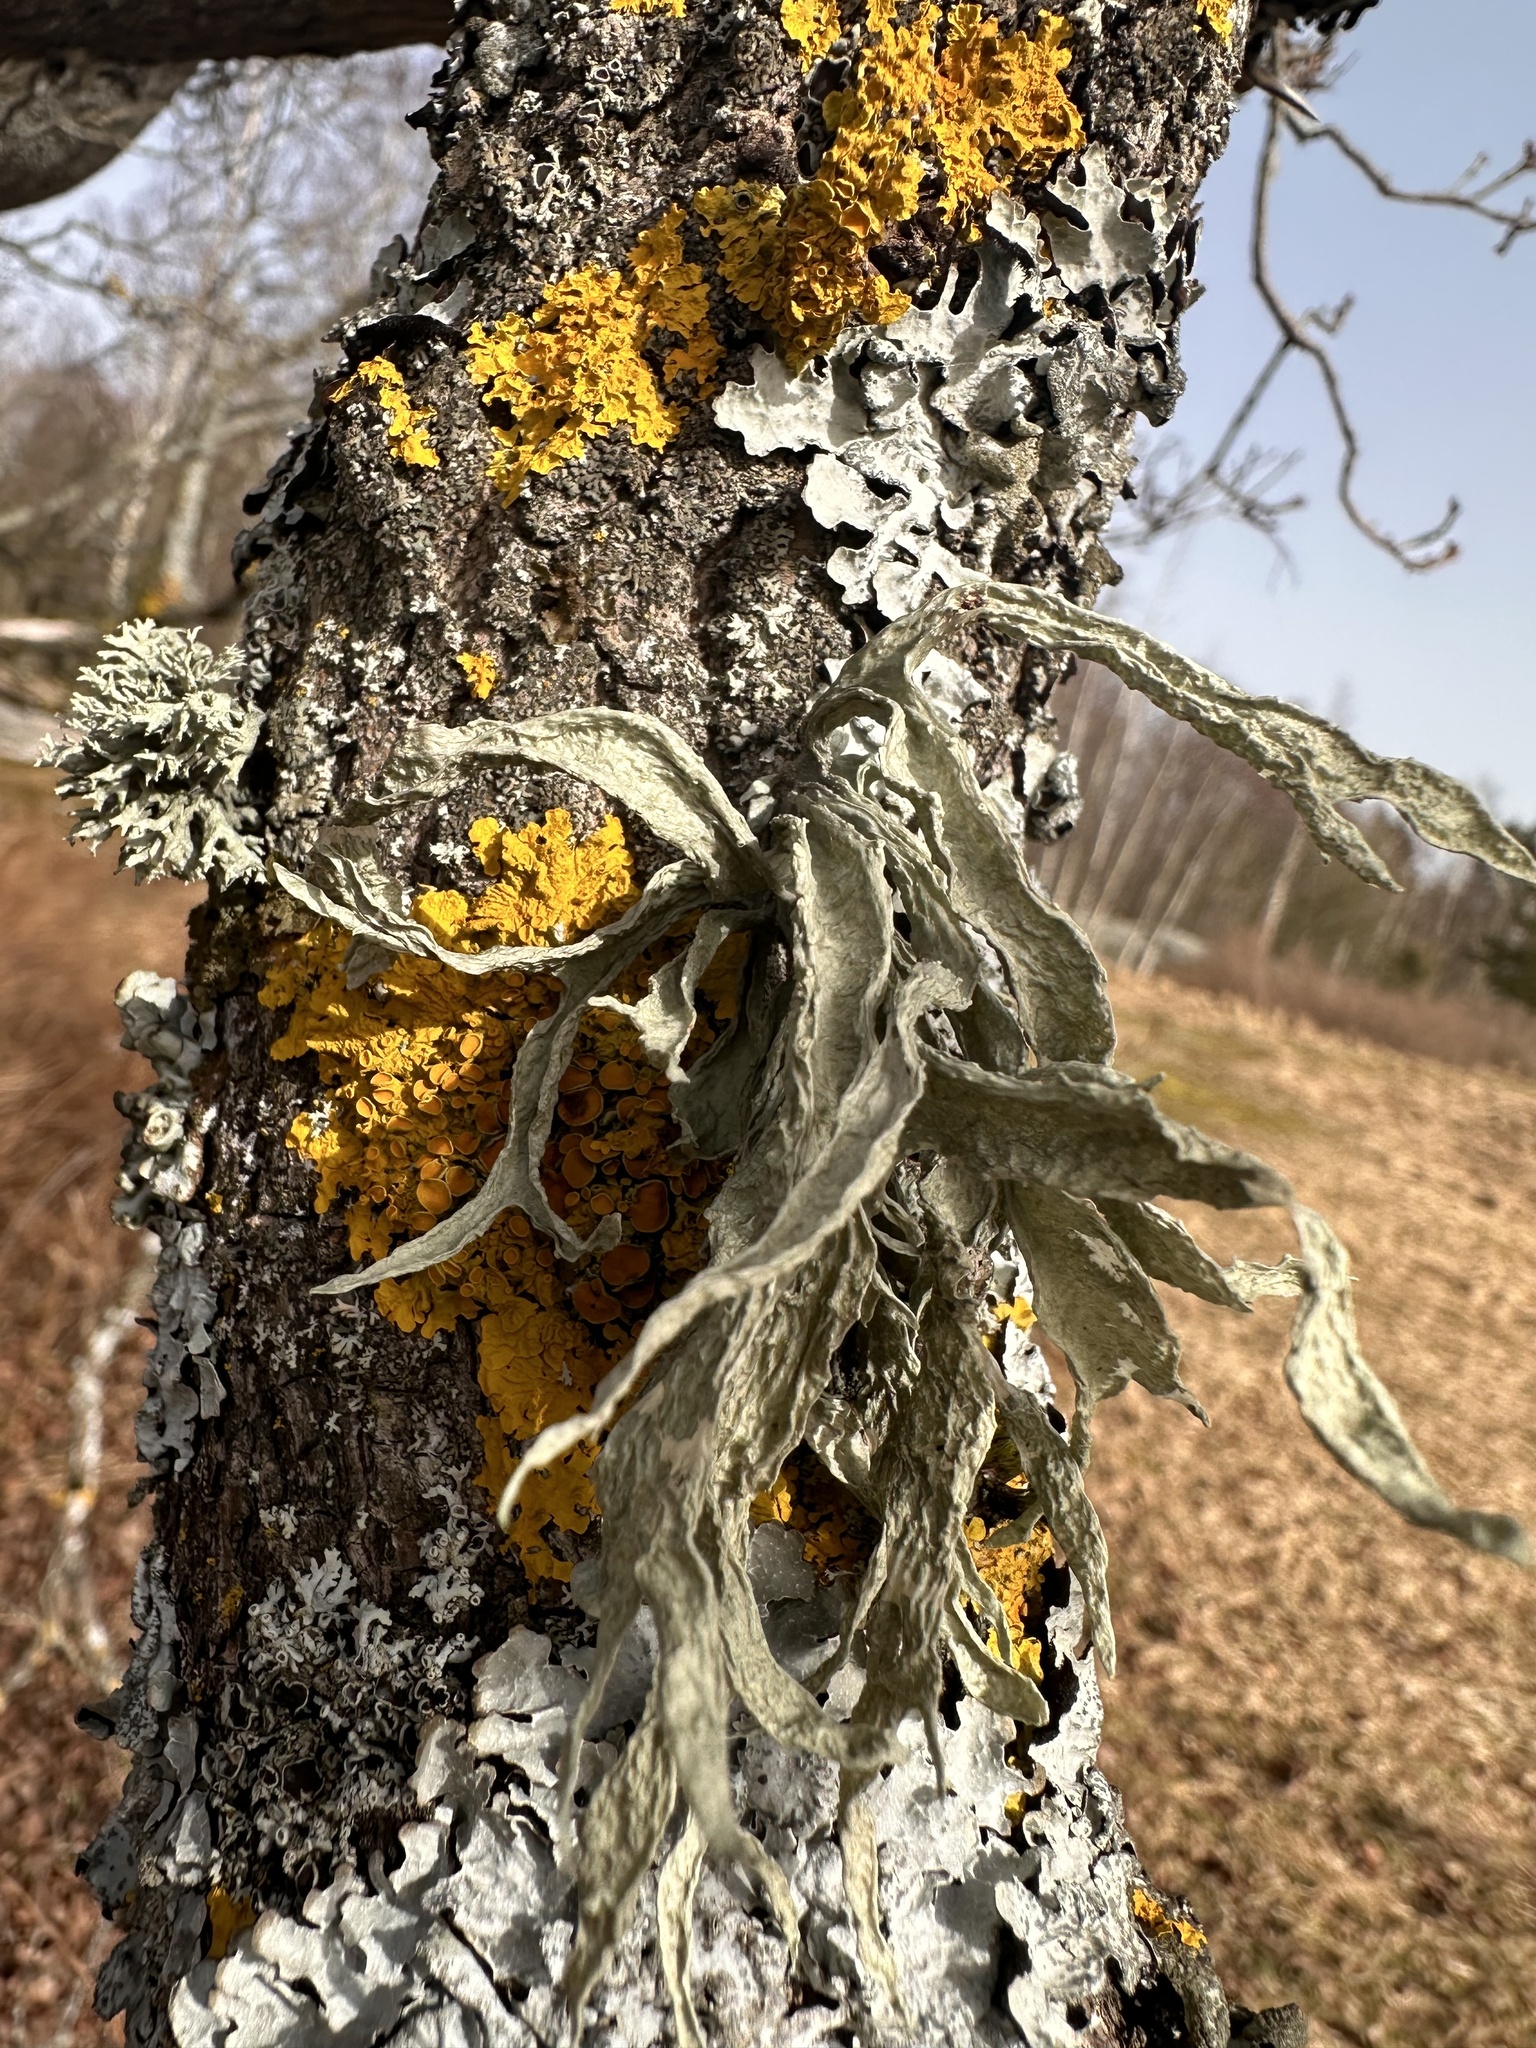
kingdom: Fungi
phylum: Ascomycota
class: Lecanoromycetes
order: Lecanorales
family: Ramalinaceae
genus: Ramalina
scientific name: Ramalina fraxinea
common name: Cartilage lichen
